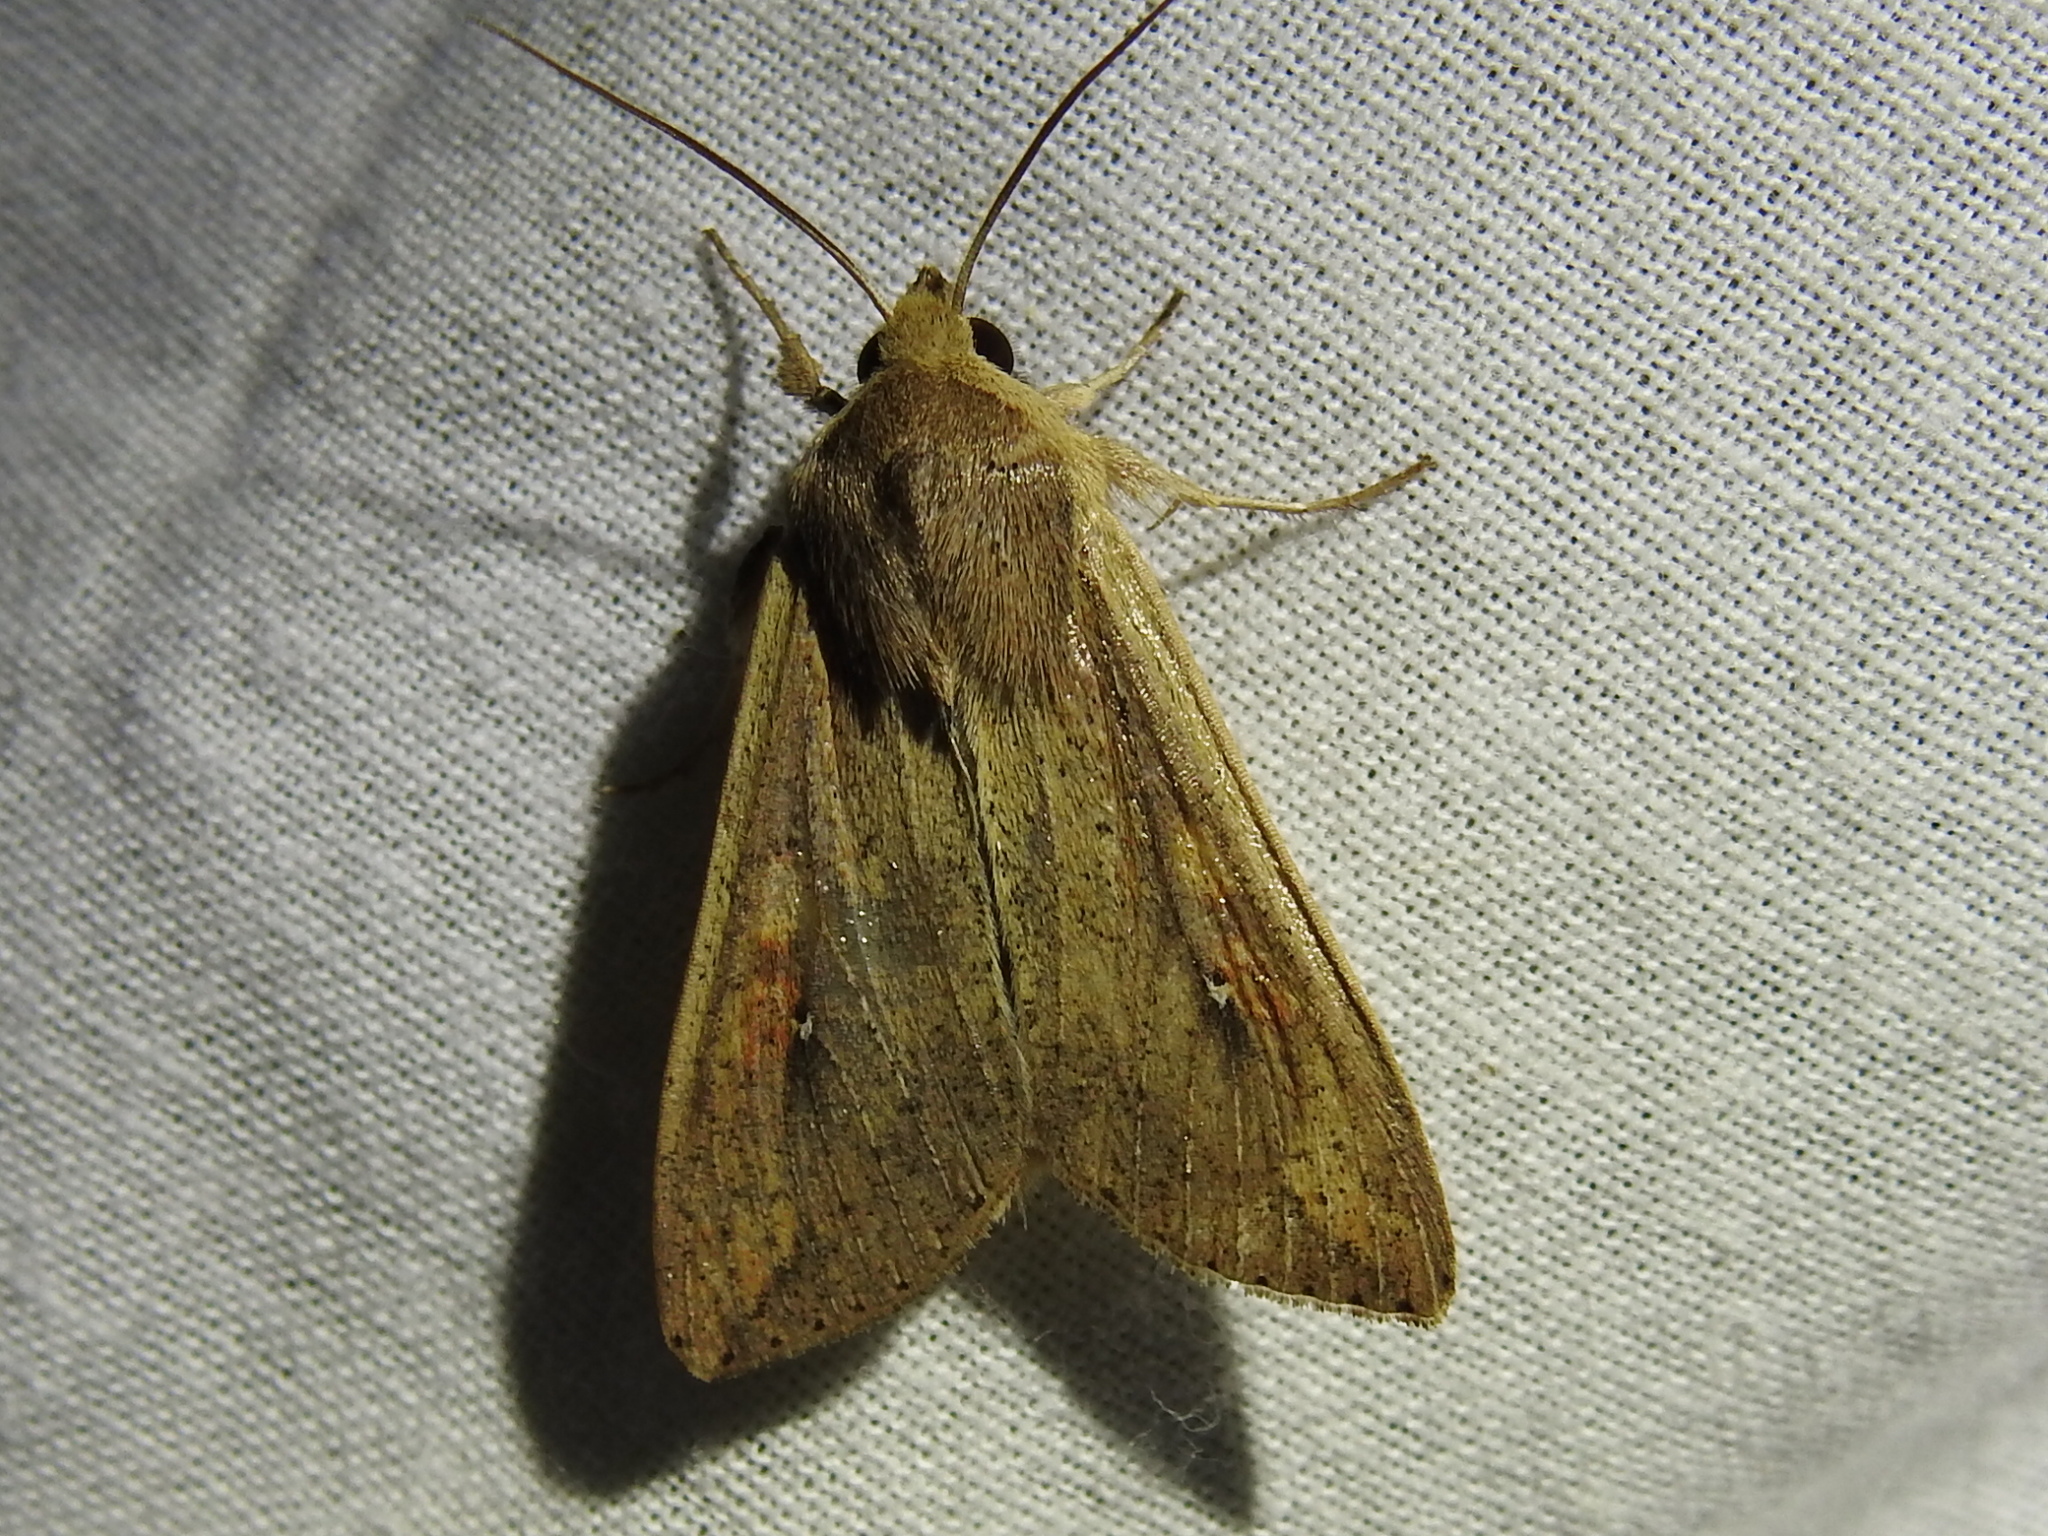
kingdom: Animalia
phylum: Arthropoda
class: Insecta
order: Lepidoptera
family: Noctuidae
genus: Mythimna
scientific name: Mythimna unipuncta
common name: White-speck
